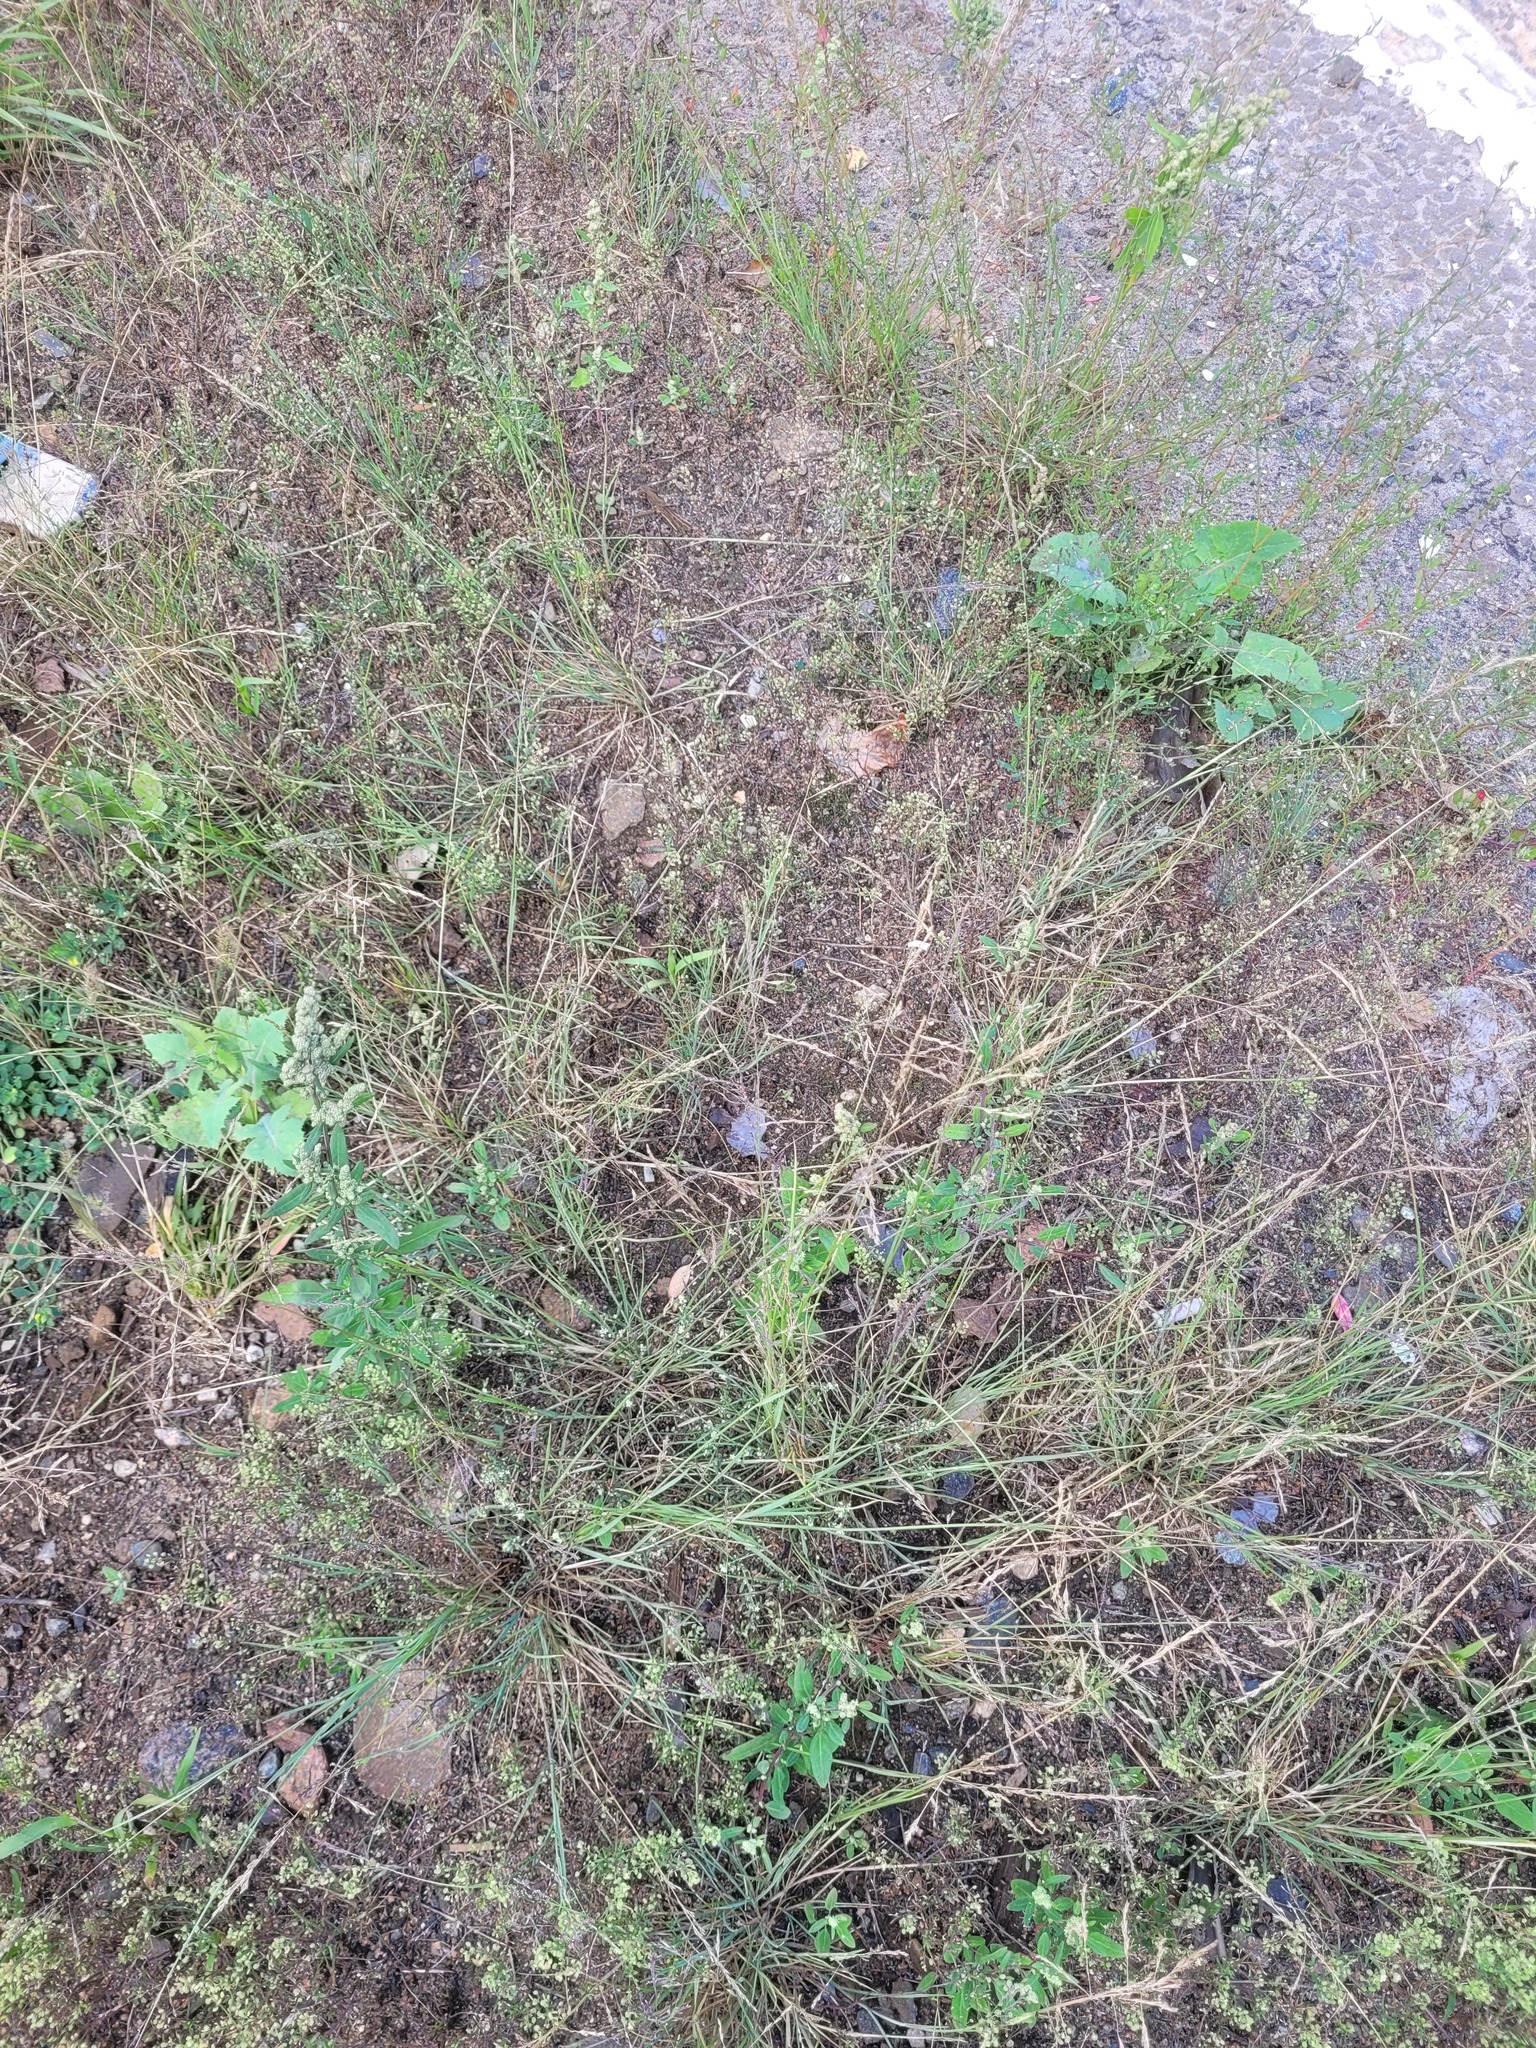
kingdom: Plantae
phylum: Tracheophyta
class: Liliopsida
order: Poales
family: Poaceae
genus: Puccinellia
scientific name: Puccinellia distans
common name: Weeping alkaligrass
